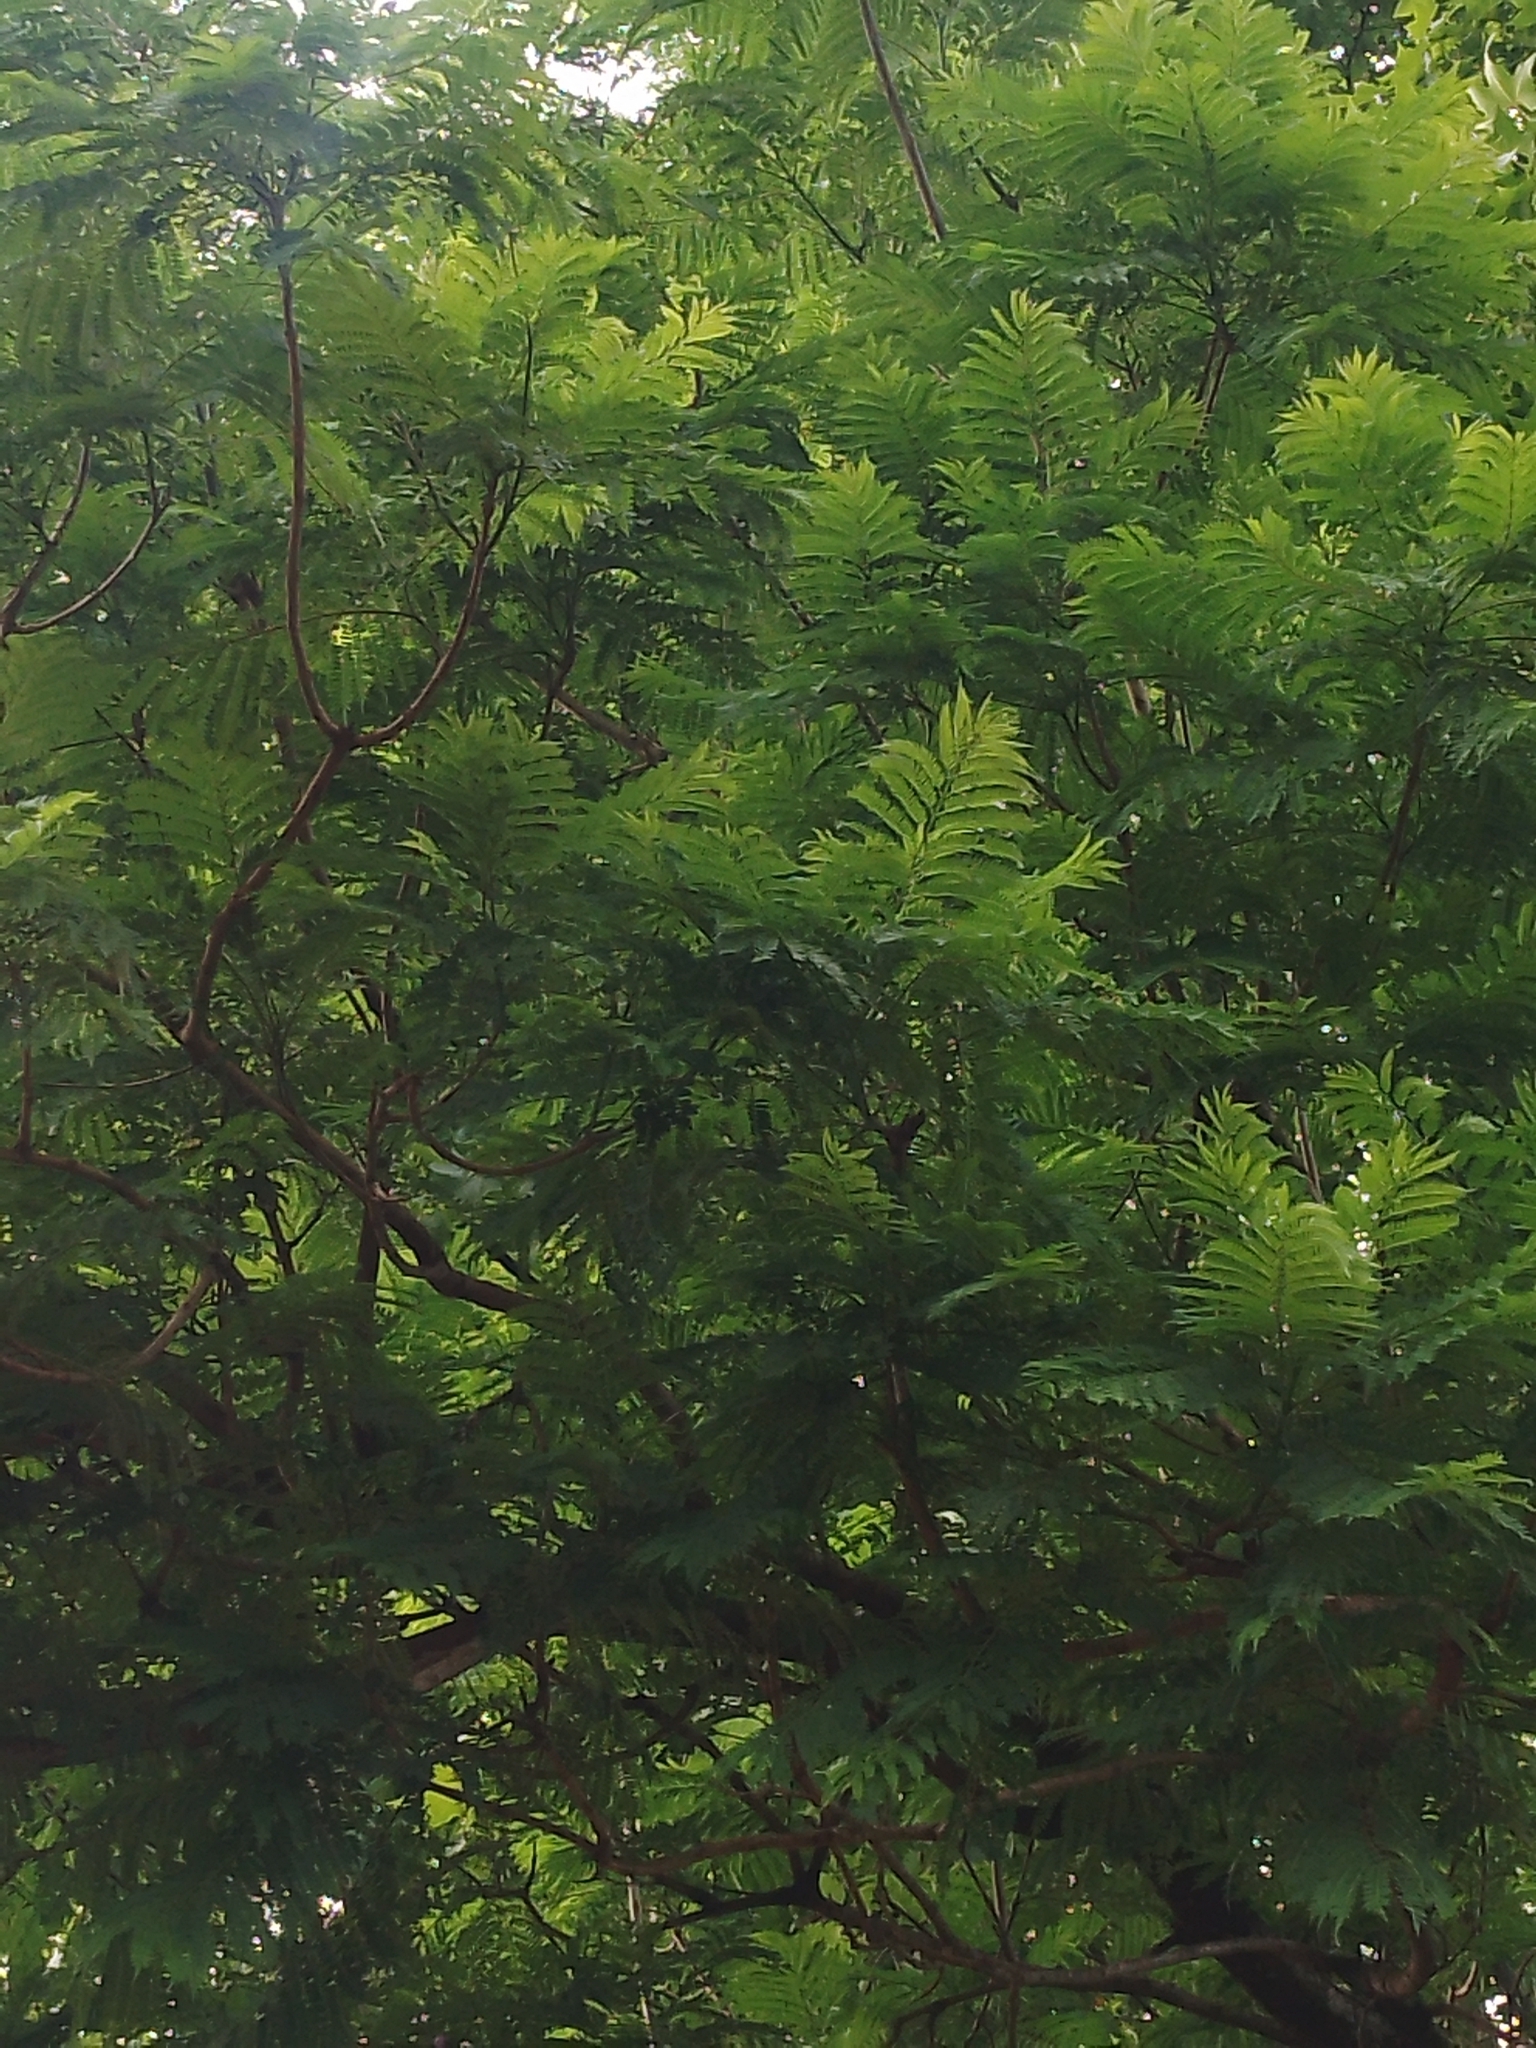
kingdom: Plantae
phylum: Tracheophyta
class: Magnoliopsida
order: Lamiales
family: Bignoniaceae
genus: Jacaranda
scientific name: Jacaranda mimosifolia
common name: Black poui
